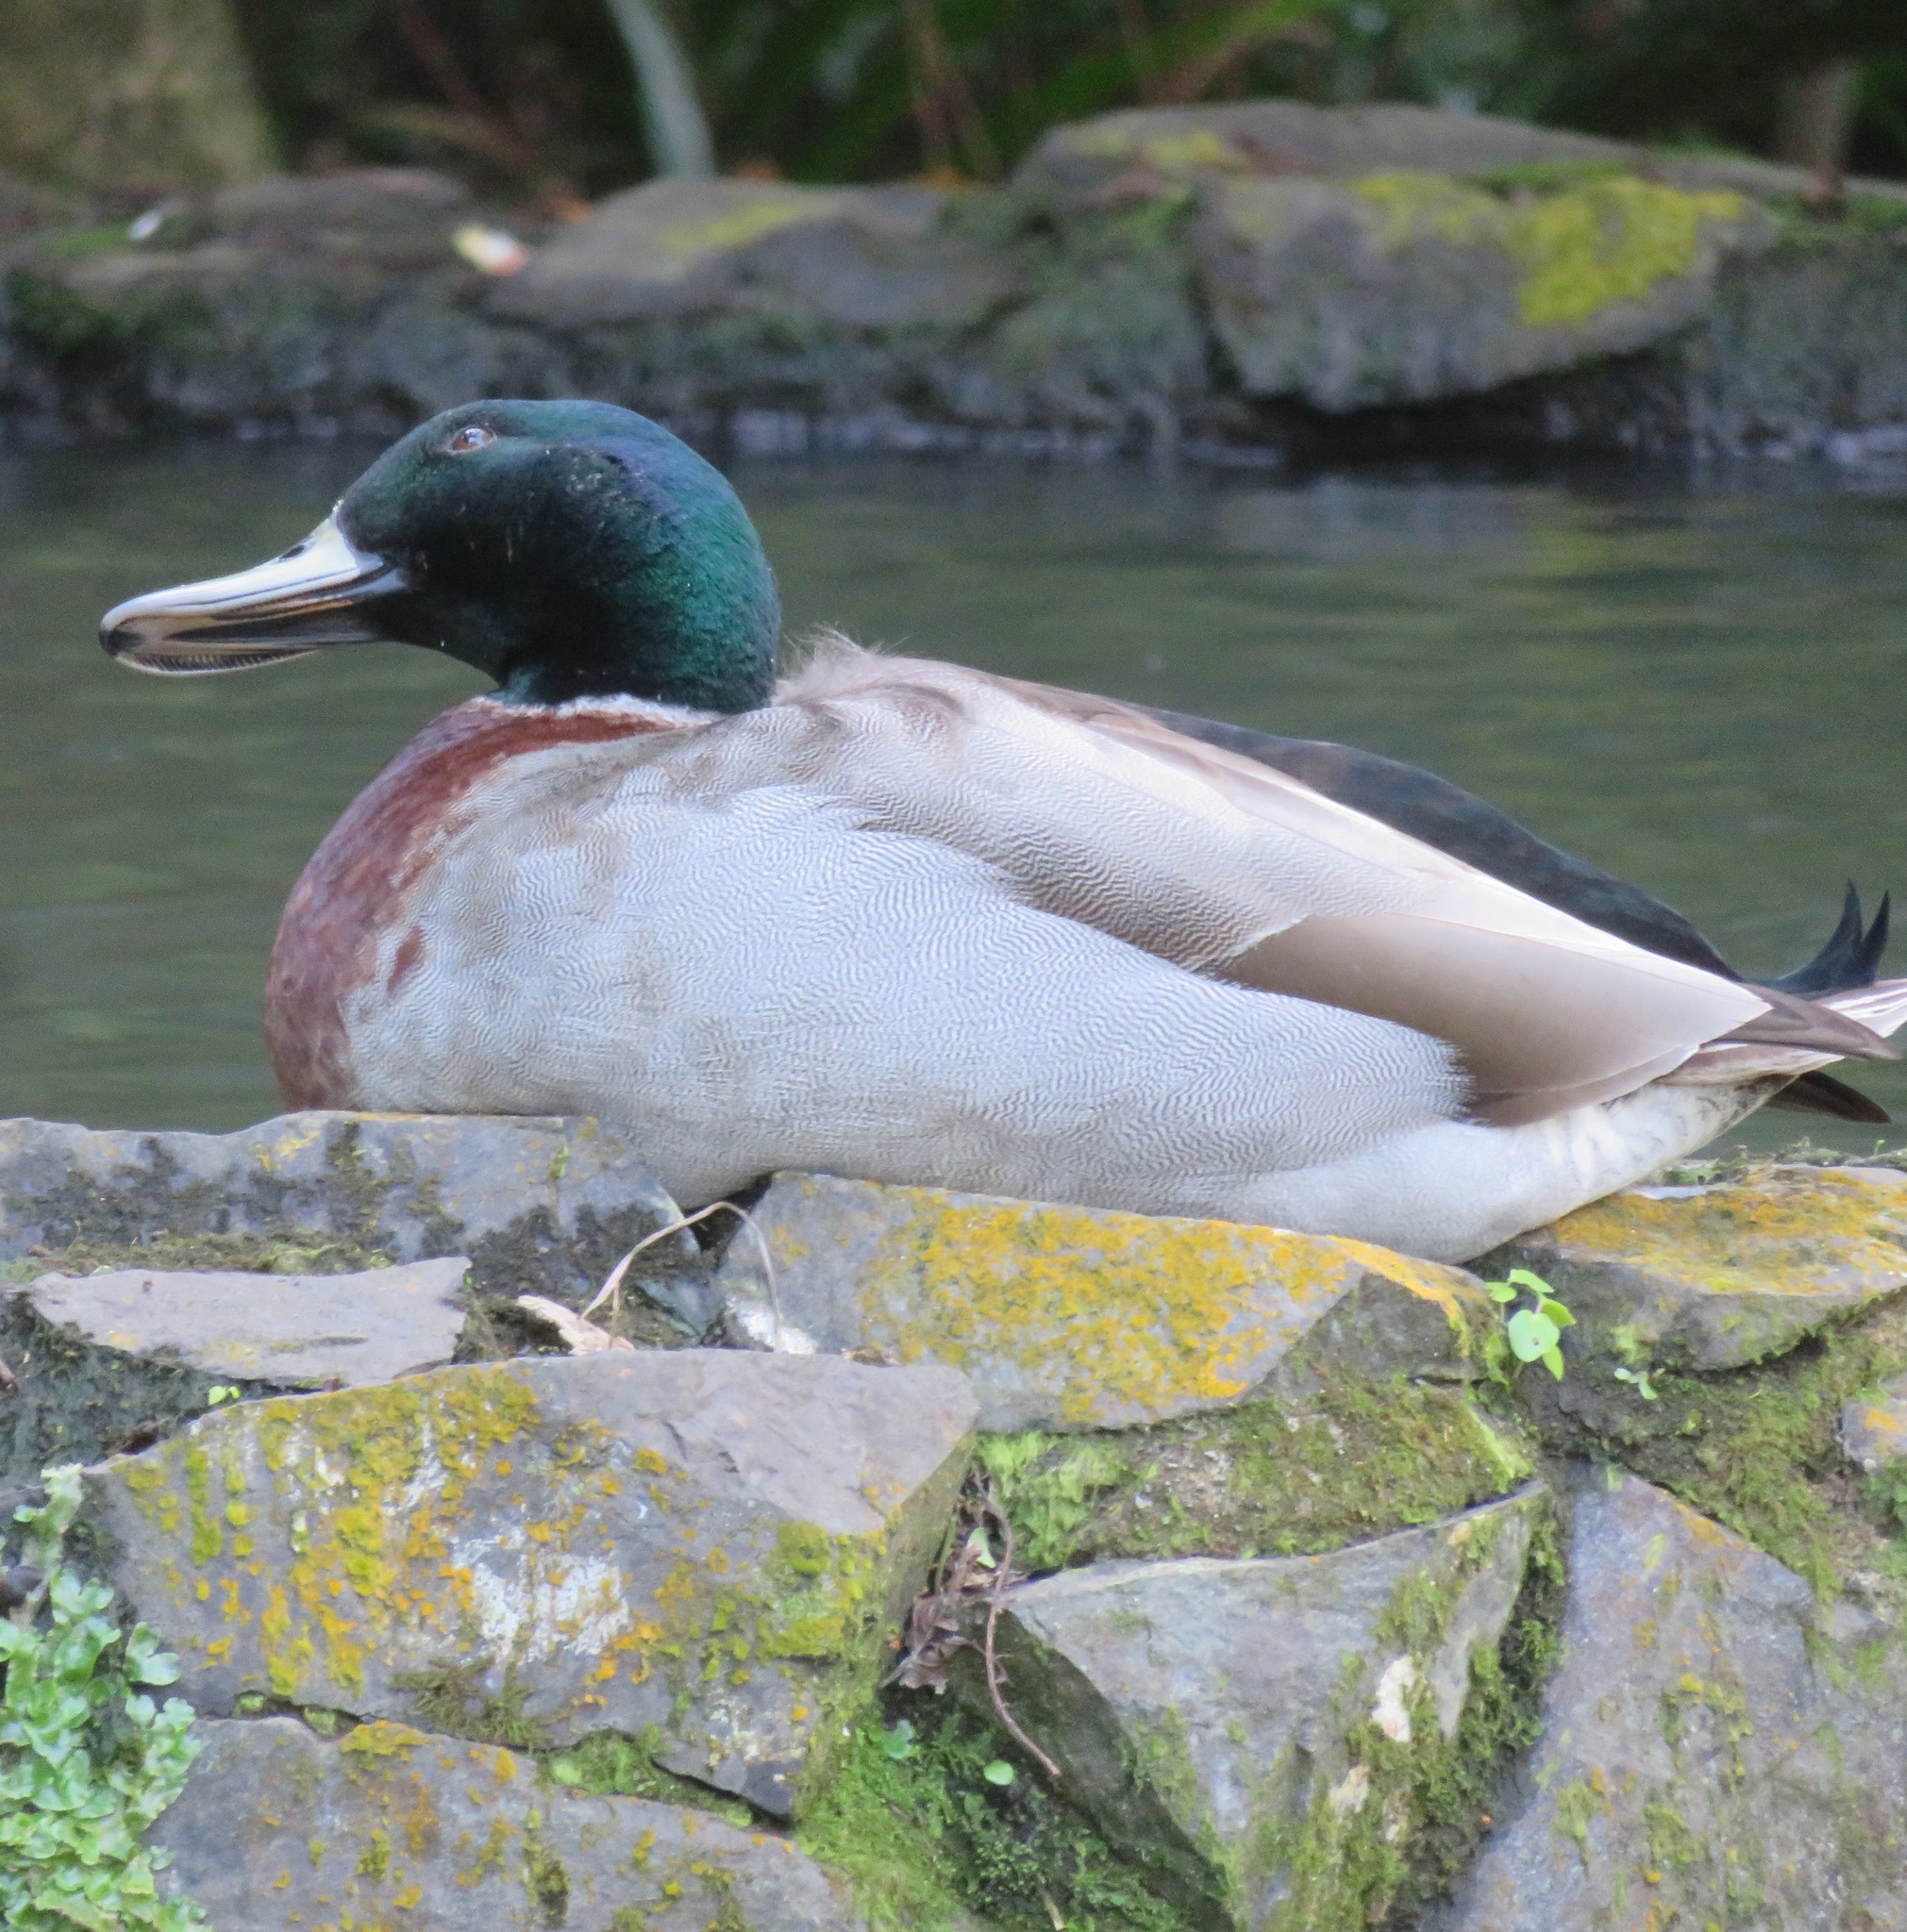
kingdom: Animalia
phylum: Chordata
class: Aves
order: Anseriformes
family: Anatidae
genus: Anas
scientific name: Anas platyrhynchos
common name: Mallard
